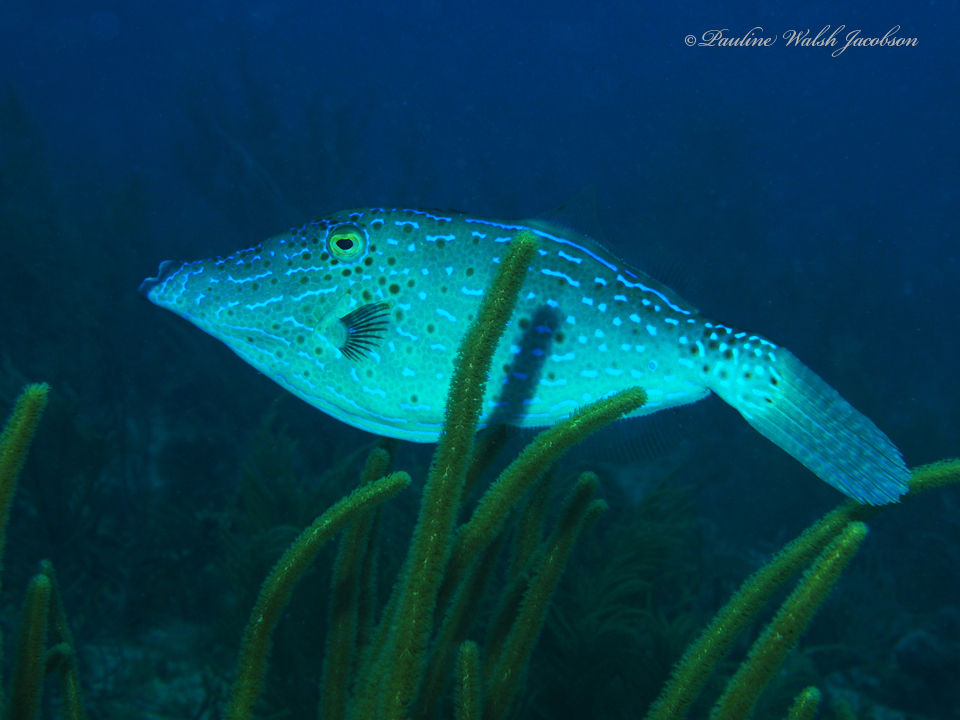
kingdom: Animalia
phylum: Chordata
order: Tetraodontiformes
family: Monacanthidae
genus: Aluterus
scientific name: Aluterus scriptus
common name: Scribbled leatherjacket filefish
